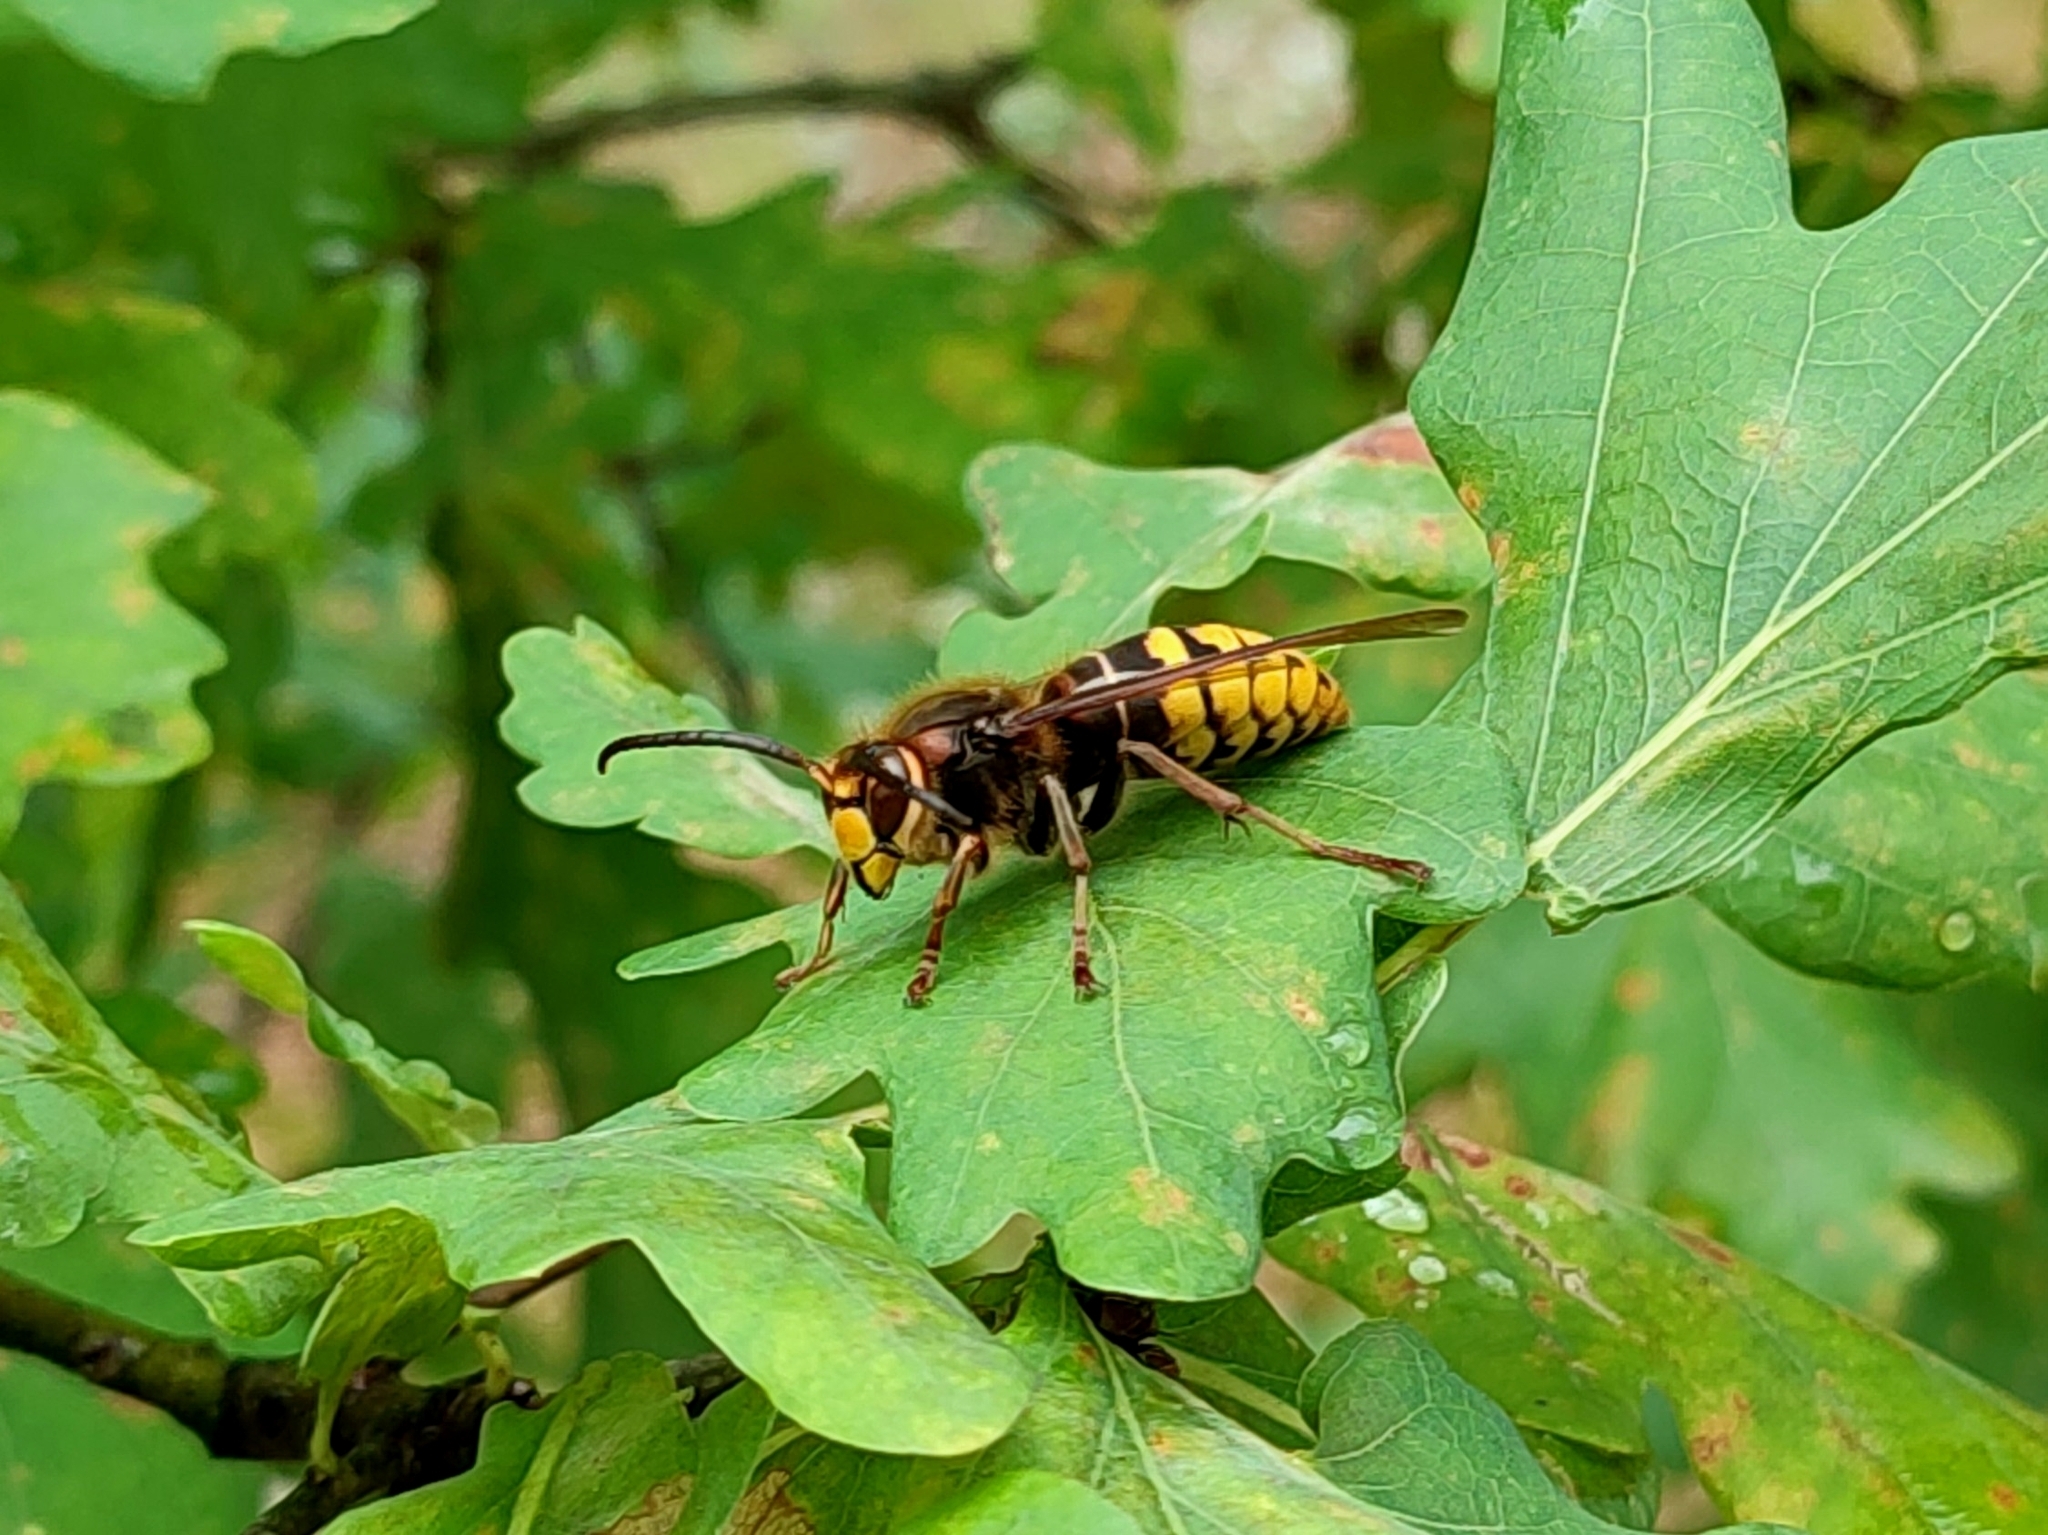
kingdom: Animalia
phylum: Arthropoda
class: Insecta
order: Hymenoptera
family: Vespidae
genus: Vespa
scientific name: Vespa crabro
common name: Hornet
